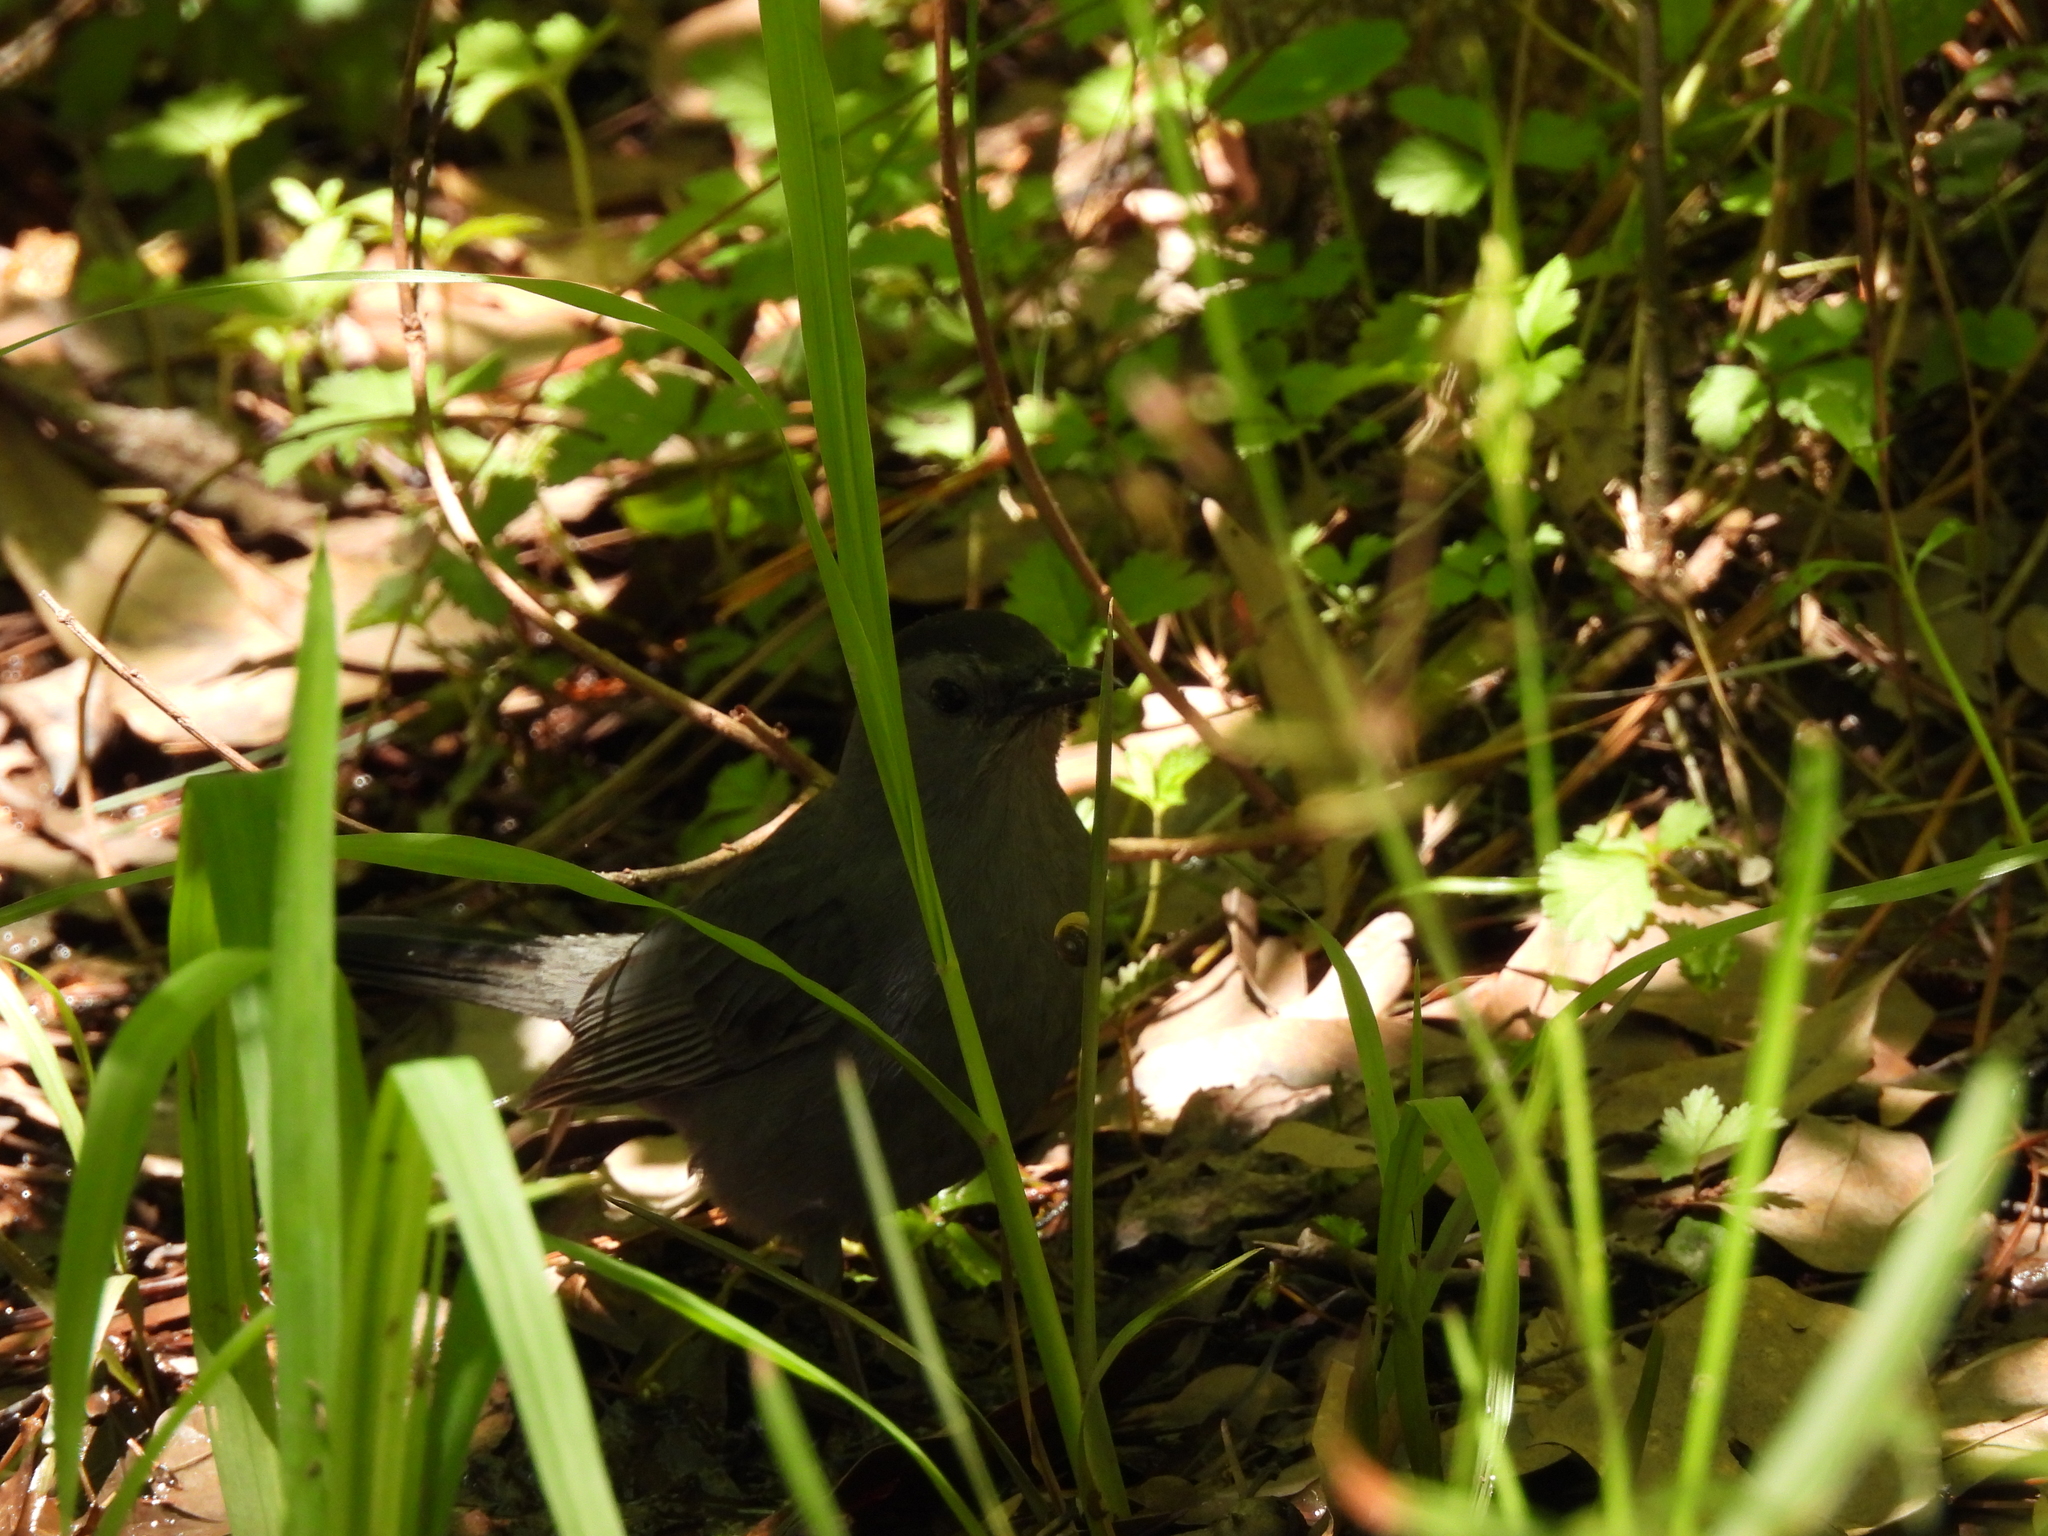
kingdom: Animalia
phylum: Chordata
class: Aves
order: Passeriformes
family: Mimidae
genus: Dumetella
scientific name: Dumetella carolinensis
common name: Gray catbird
